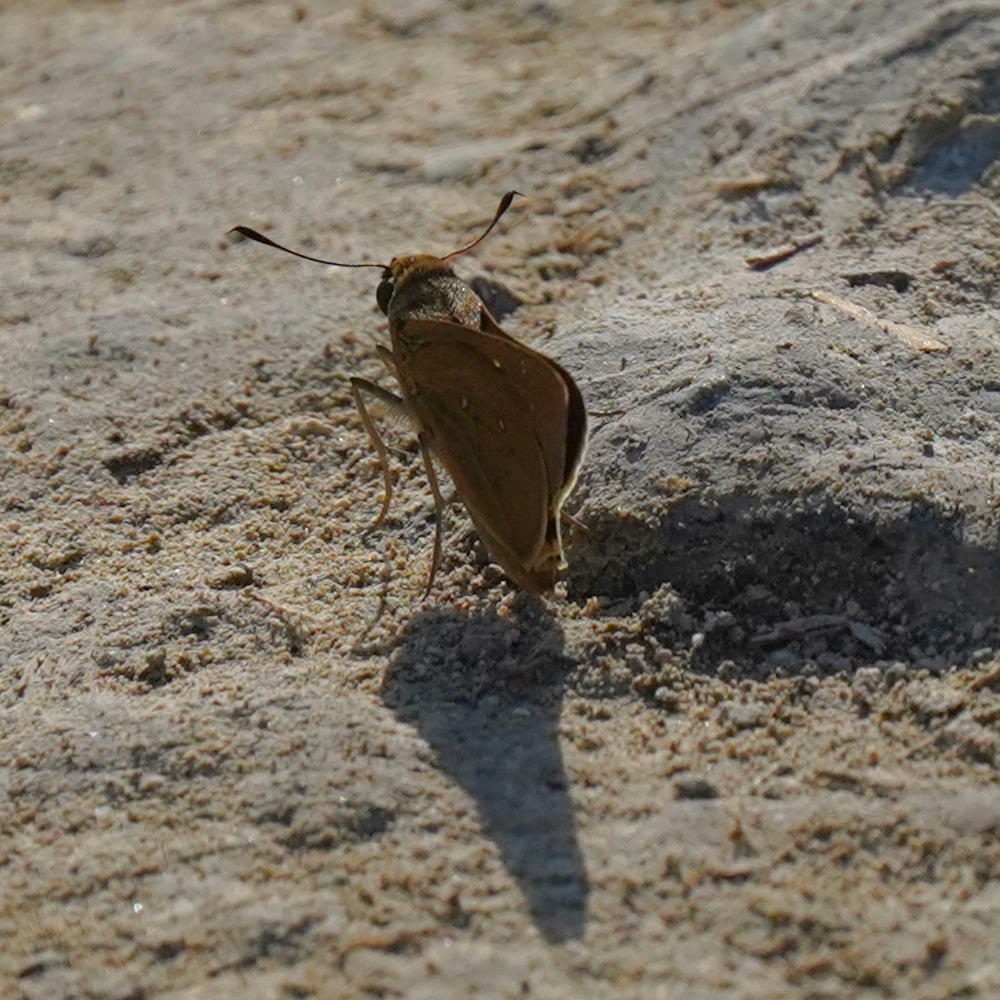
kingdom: Animalia
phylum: Arthropoda
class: Insecta
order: Lepidoptera
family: Hesperiidae
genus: Pelopidas
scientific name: Pelopidas thrax
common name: Millet skipper
